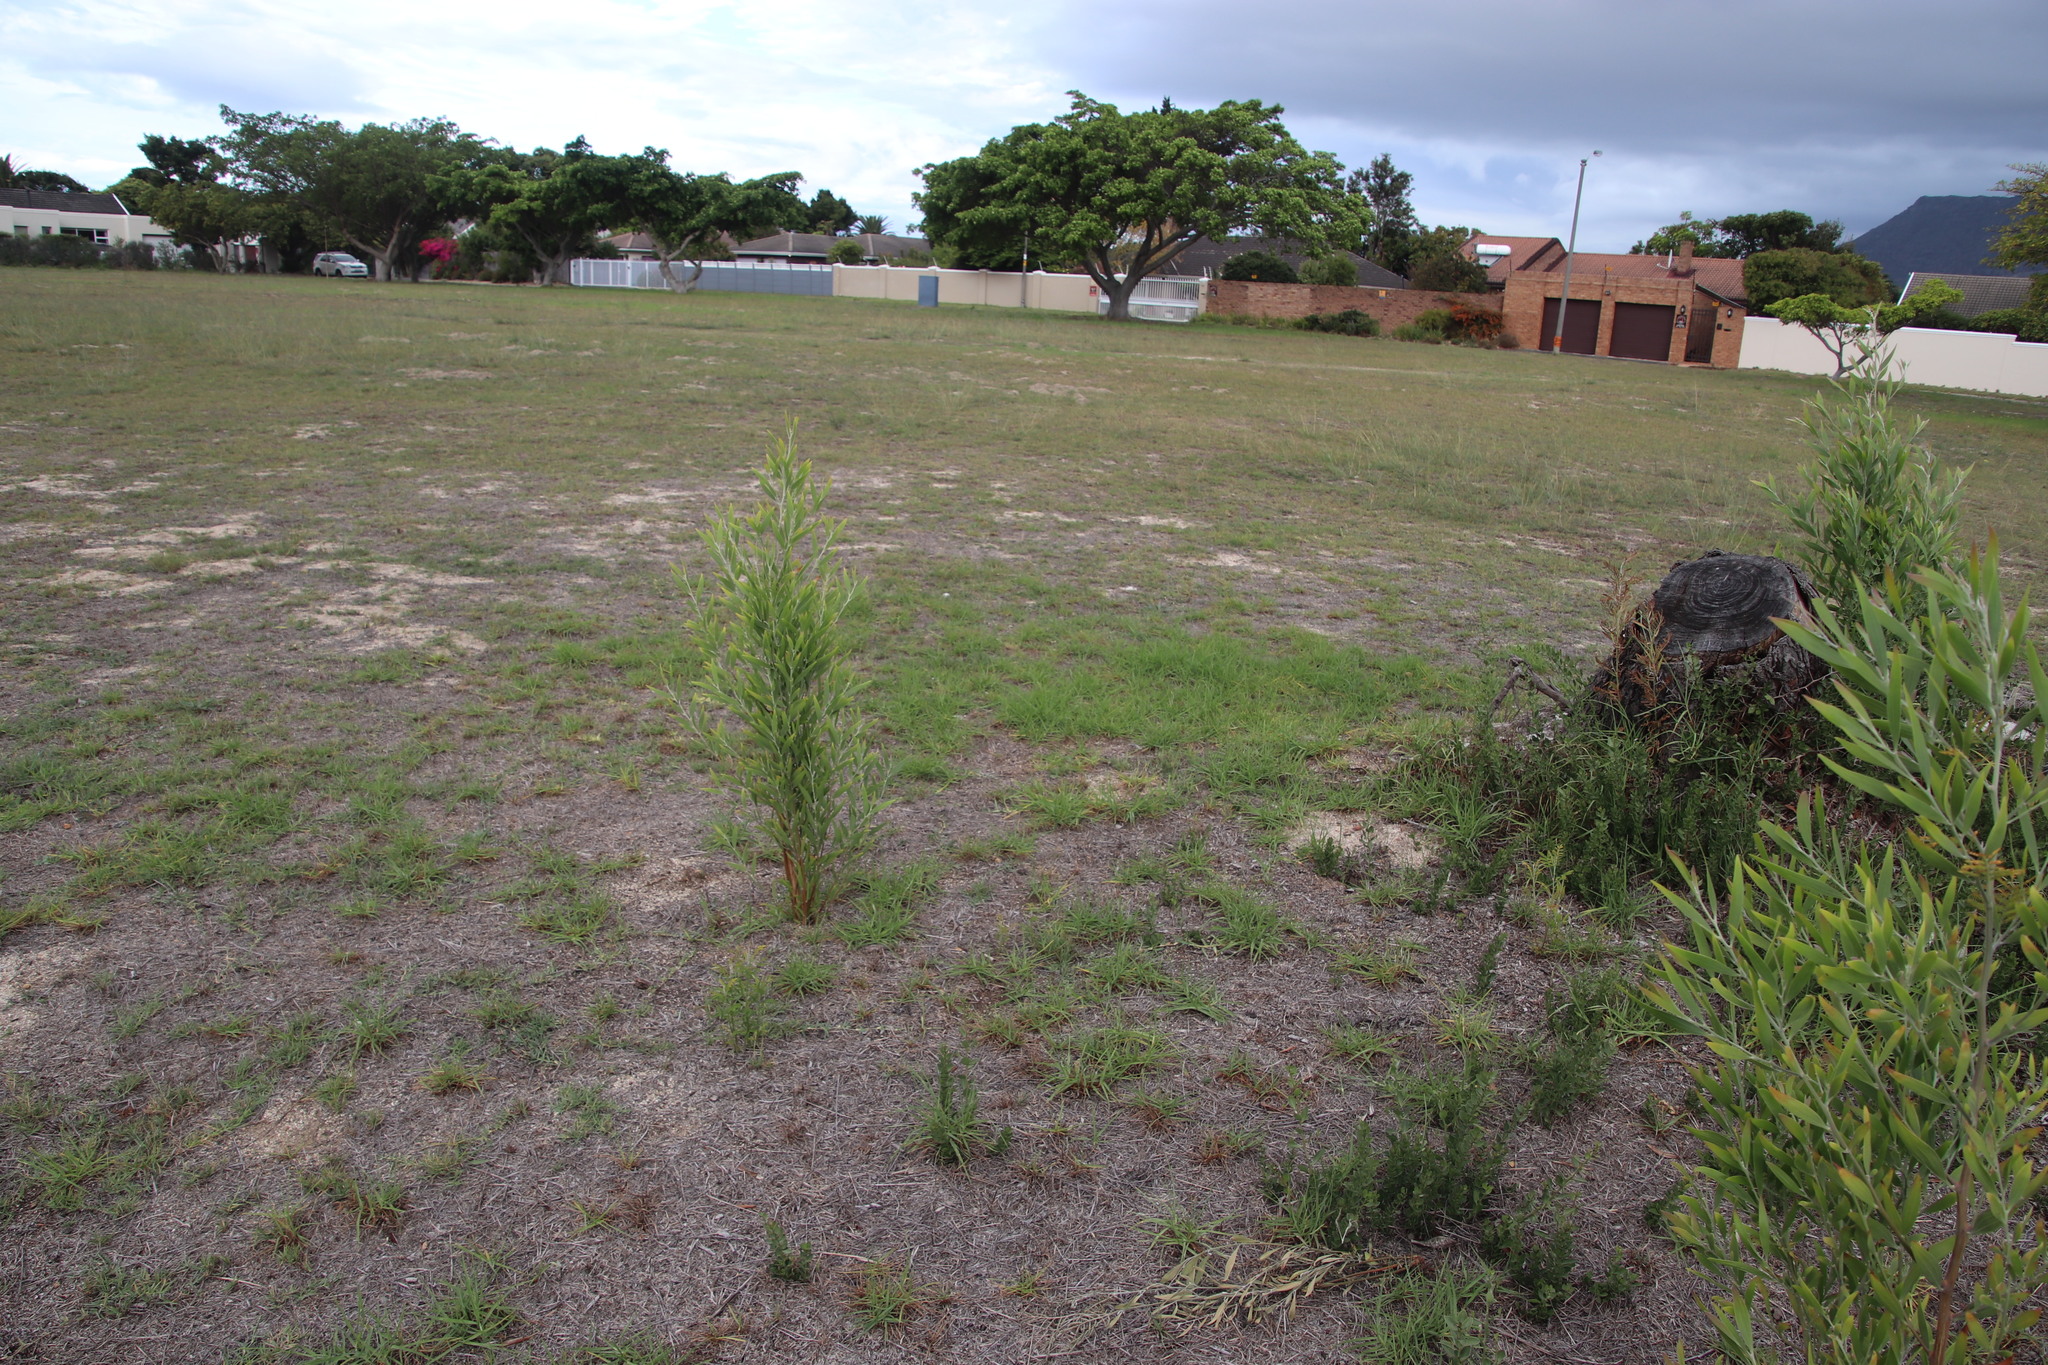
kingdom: Plantae
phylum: Tracheophyta
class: Magnoliopsida
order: Celastrales
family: Celastraceae
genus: Gymnosporia
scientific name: Gymnosporia buxifolia
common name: Common spike-thorn
